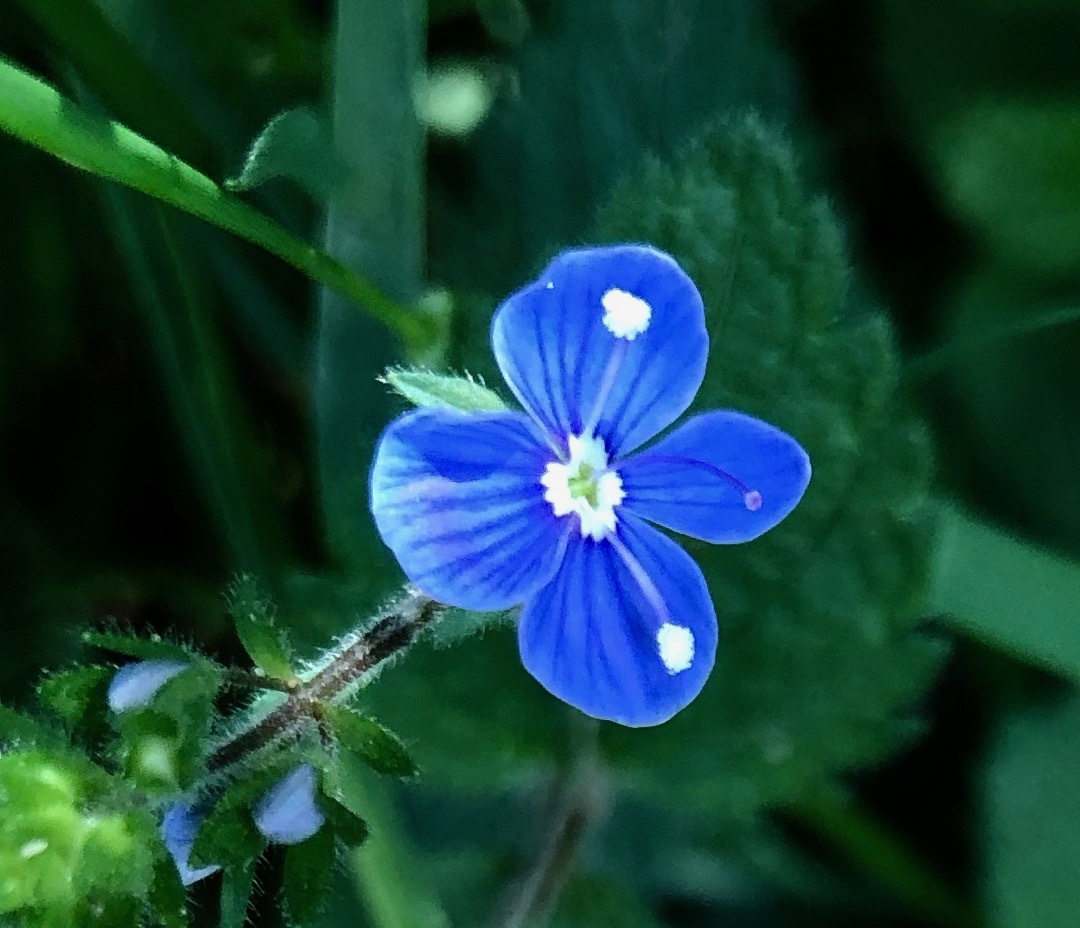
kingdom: Plantae
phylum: Tracheophyta
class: Magnoliopsida
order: Lamiales
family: Plantaginaceae
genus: Veronica
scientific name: Veronica chamaedrys
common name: Germander speedwell
